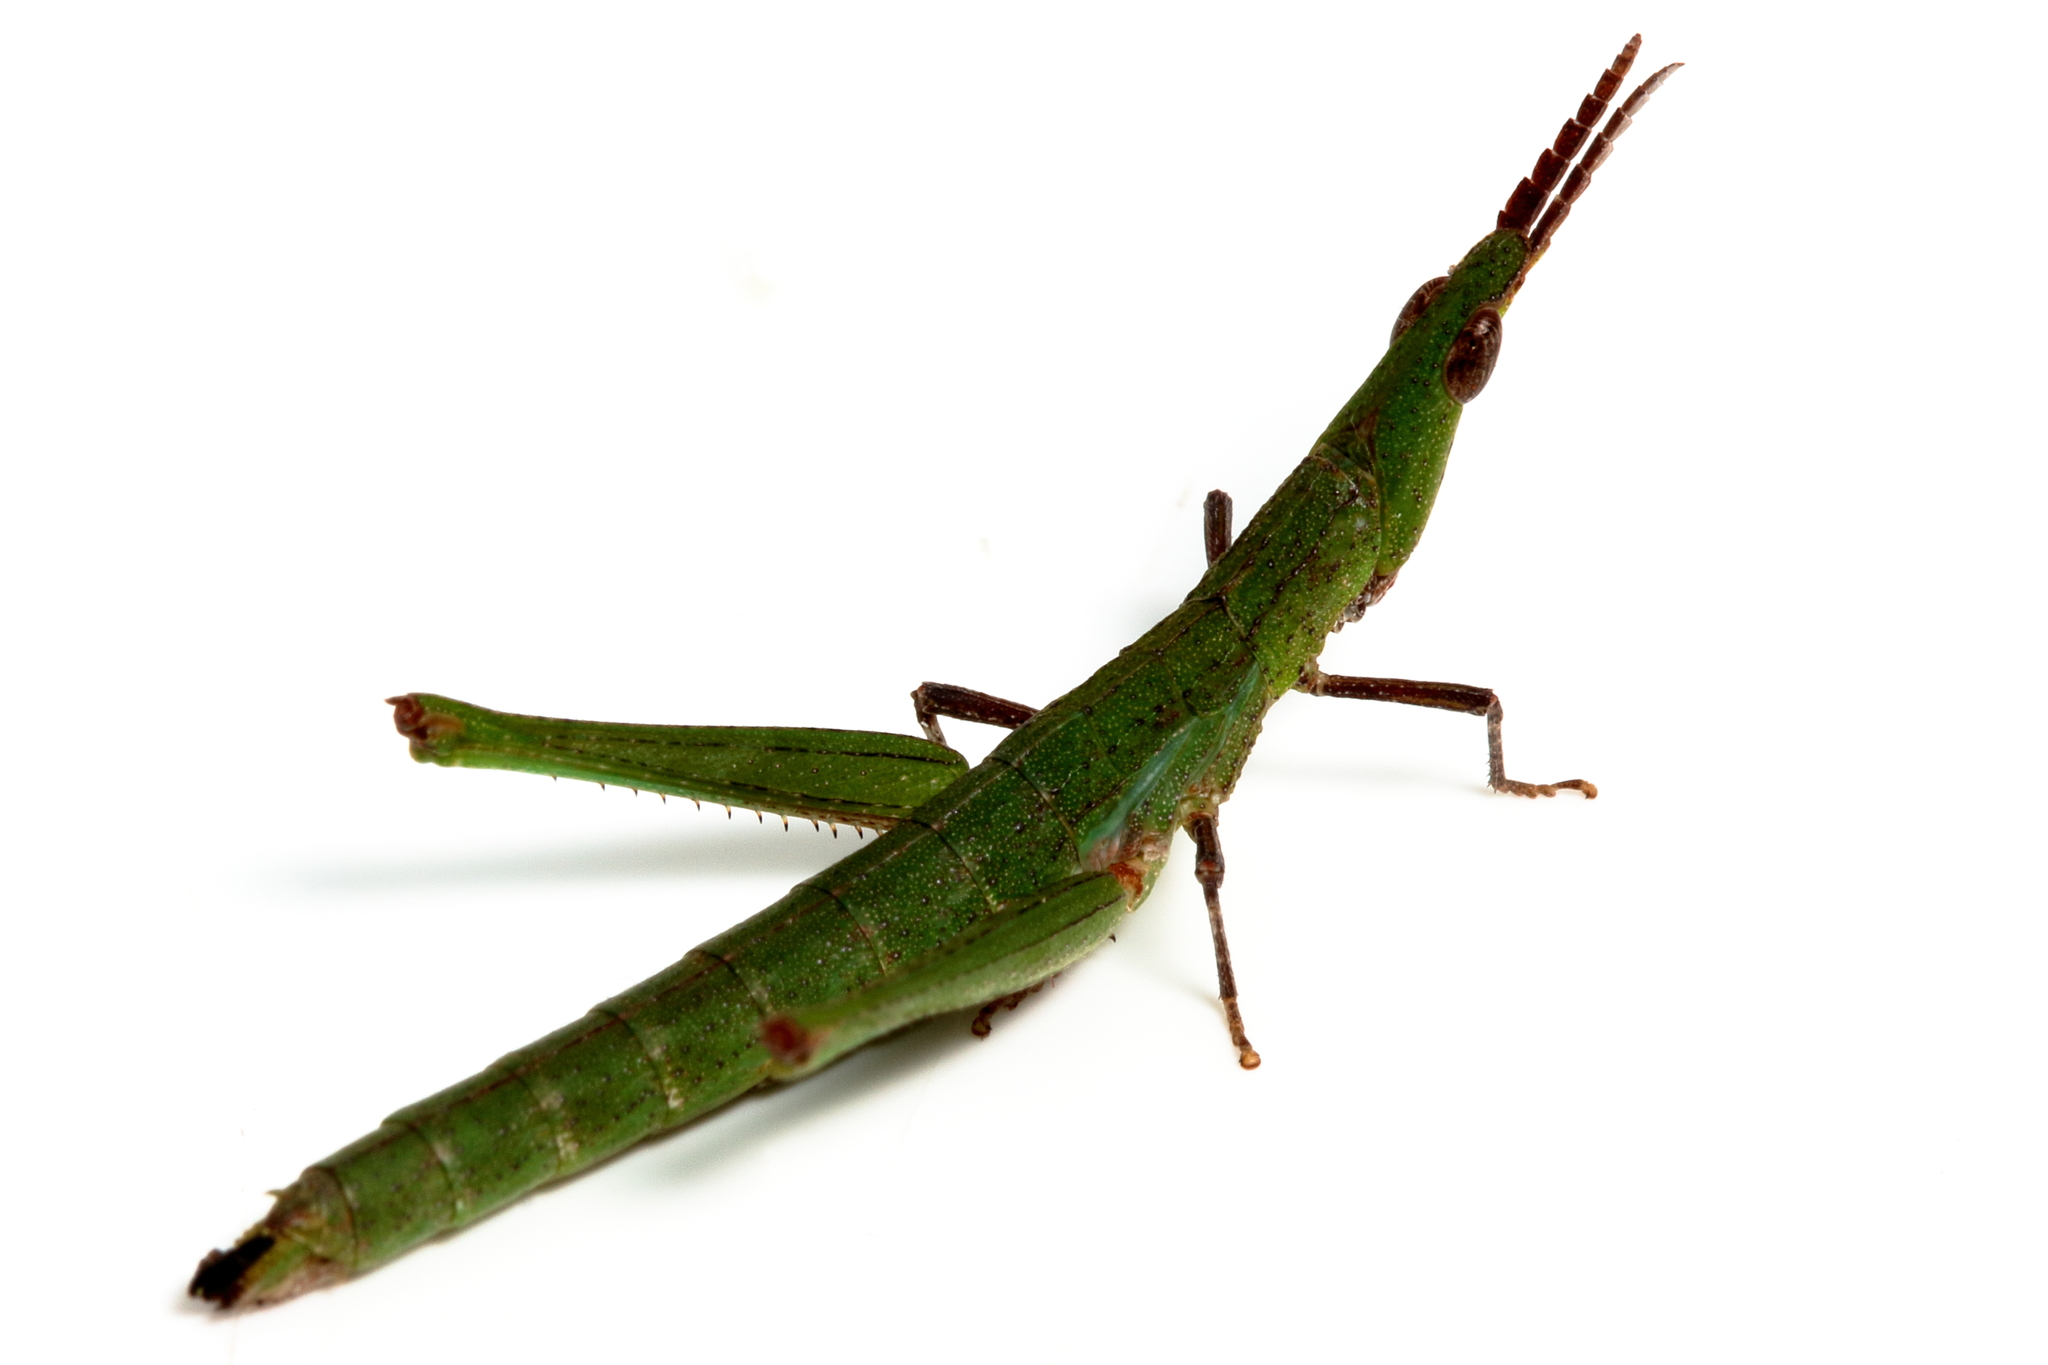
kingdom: Animalia
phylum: Arthropoda
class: Insecta
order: Orthoptera
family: Morabidae
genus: Vandiemenella
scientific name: Vandiemenella viatica
